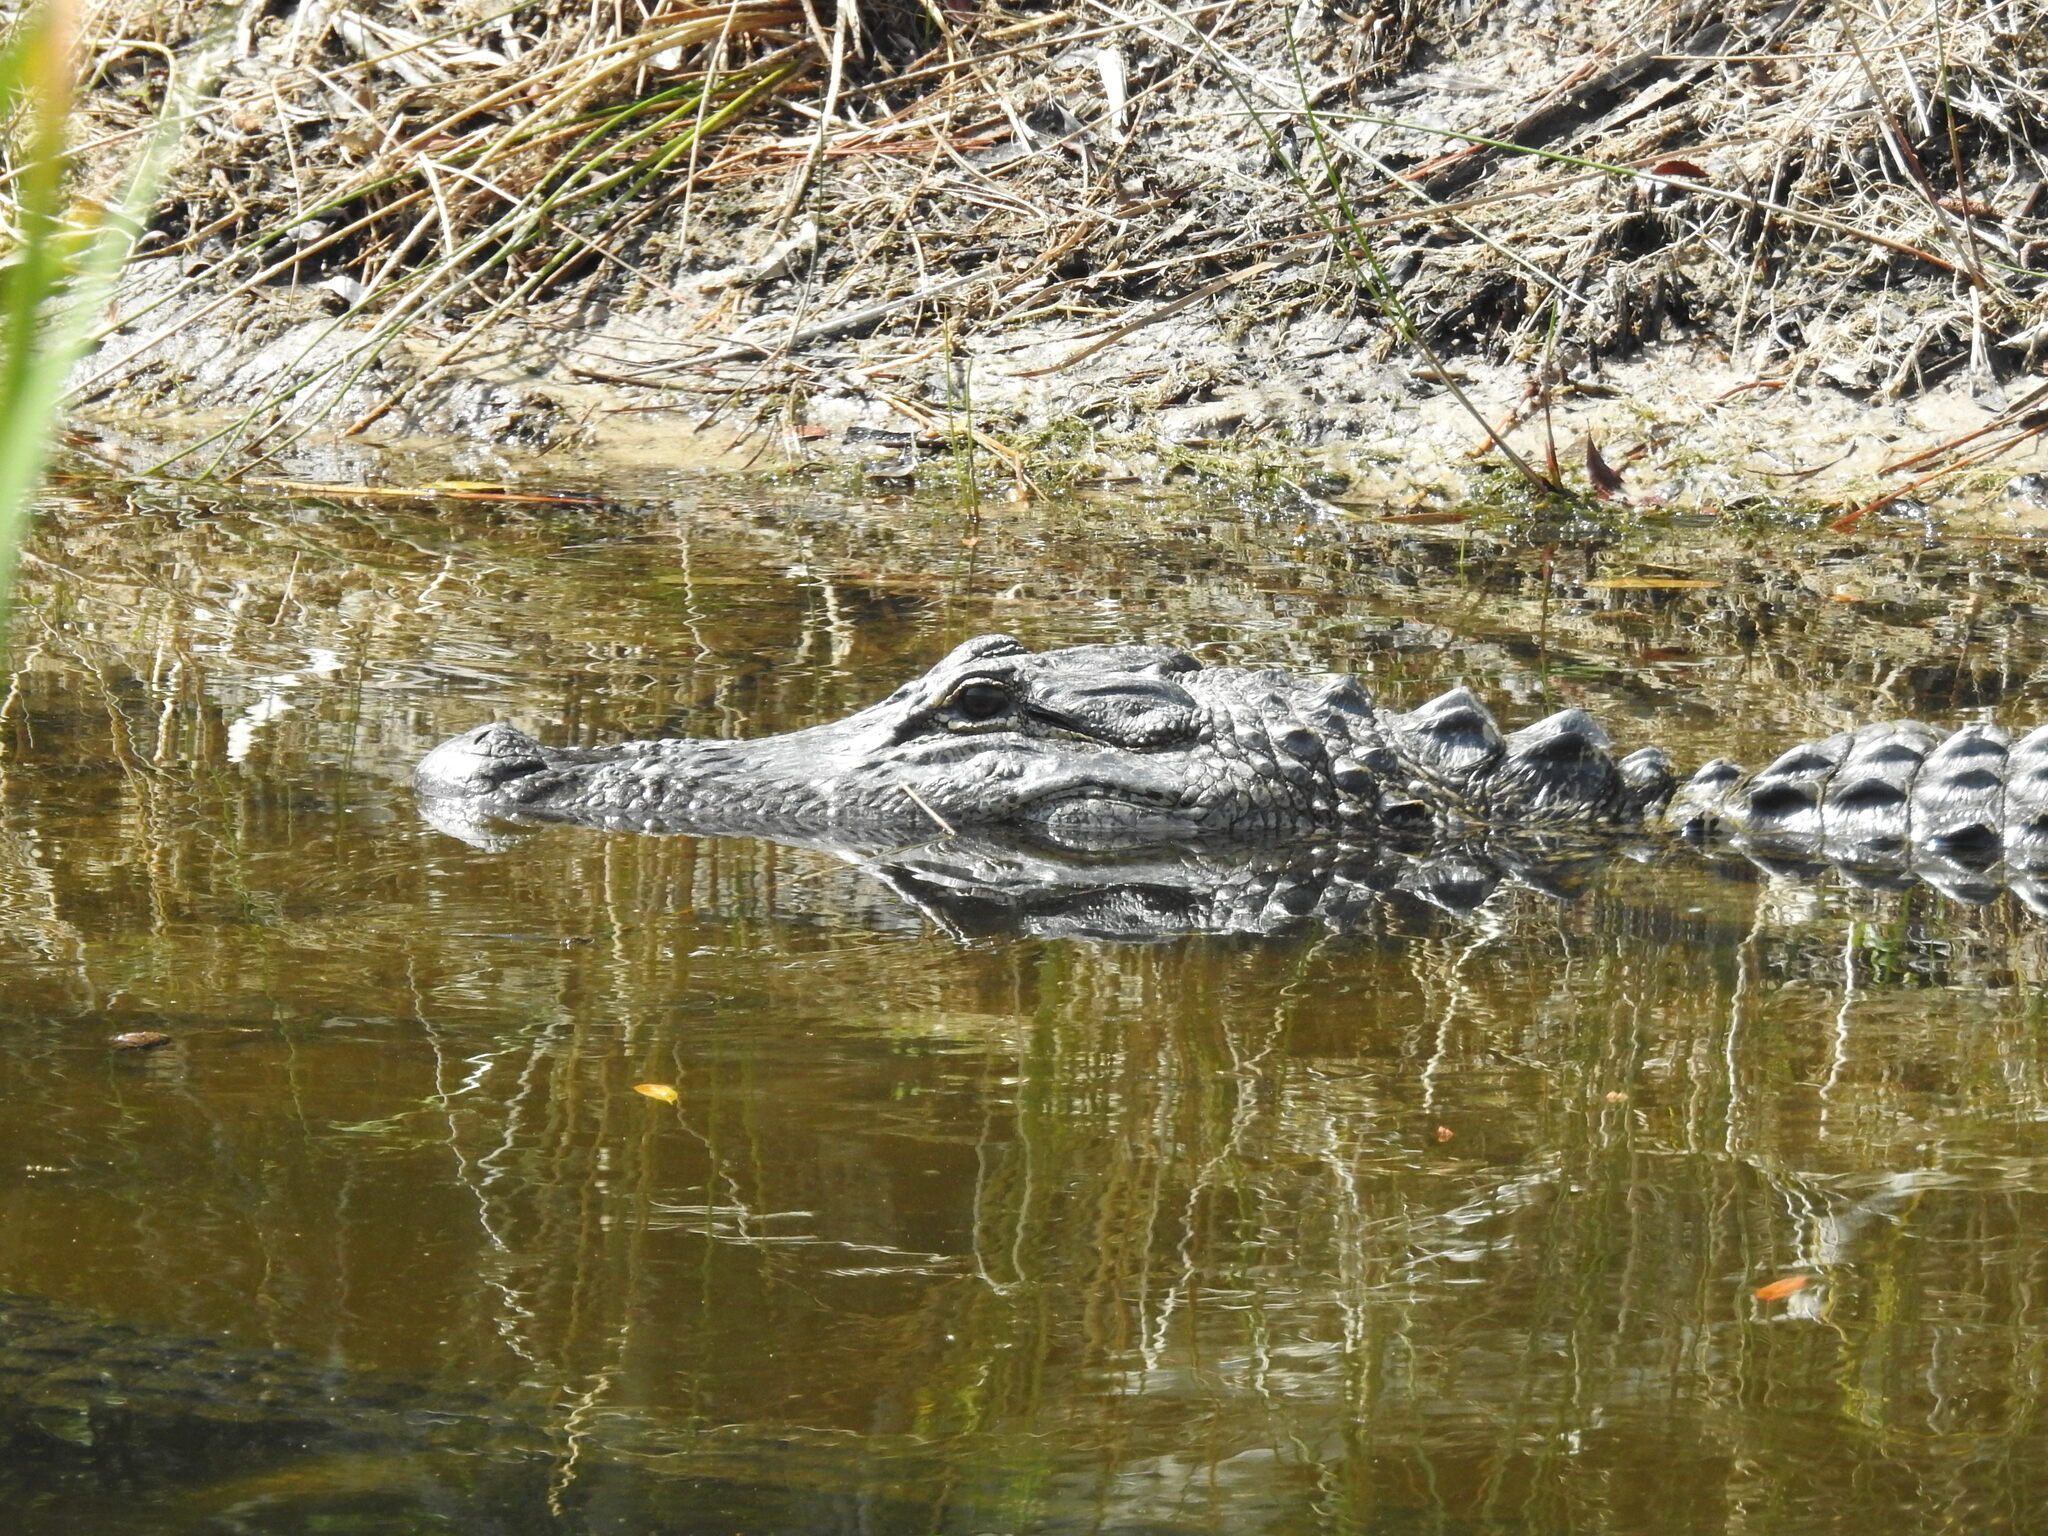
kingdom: Animalia
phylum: Chordata
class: Crocodylia
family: Alligatoridae
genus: Alligator
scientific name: Alligator mississippiensis
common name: American alligator
